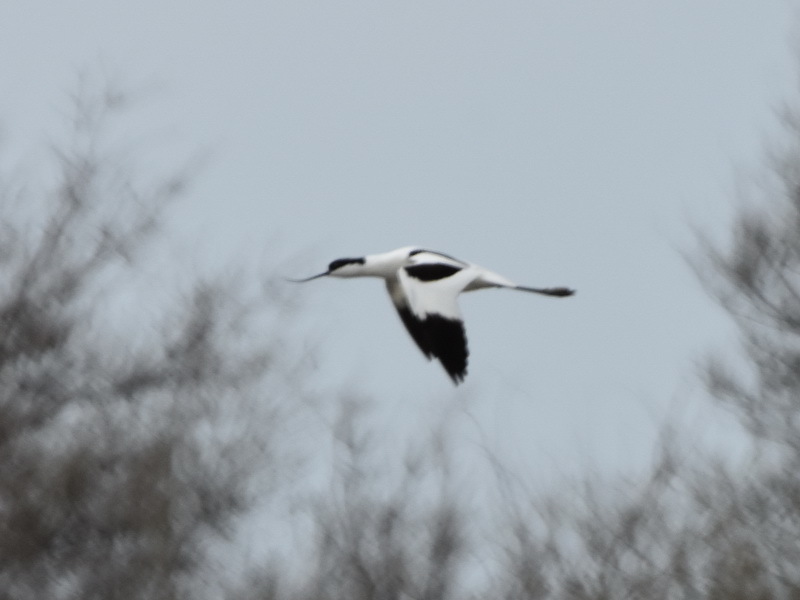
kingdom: Animalia
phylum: Chordata
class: Aves
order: Charadriiformes
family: Recurvirostridae
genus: Recurvirostra
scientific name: Recurvirostra avosetta
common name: Pied avocet
